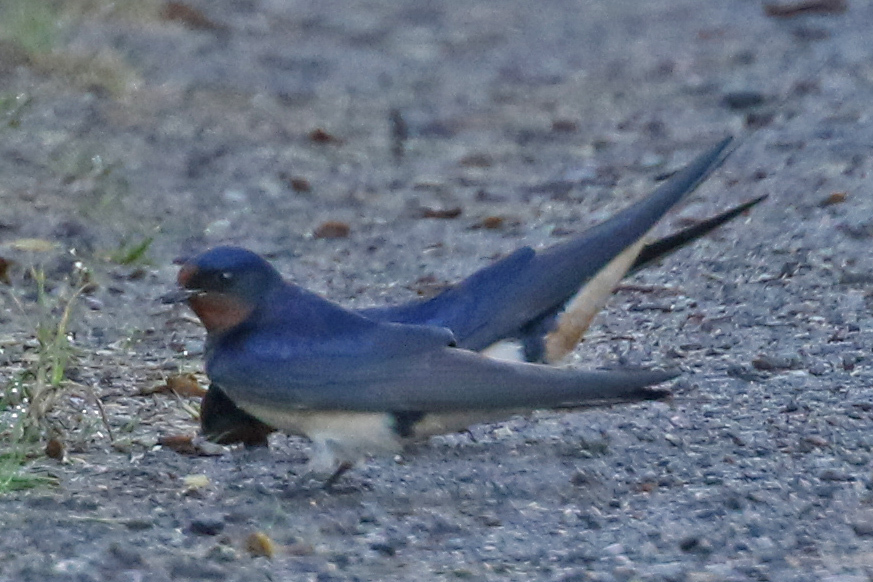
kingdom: Animalia
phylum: Chordata
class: Aves
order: Passeriformes
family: Hirundinidae
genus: Hirundo
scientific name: Hirundo rustica
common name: Barn swallow
